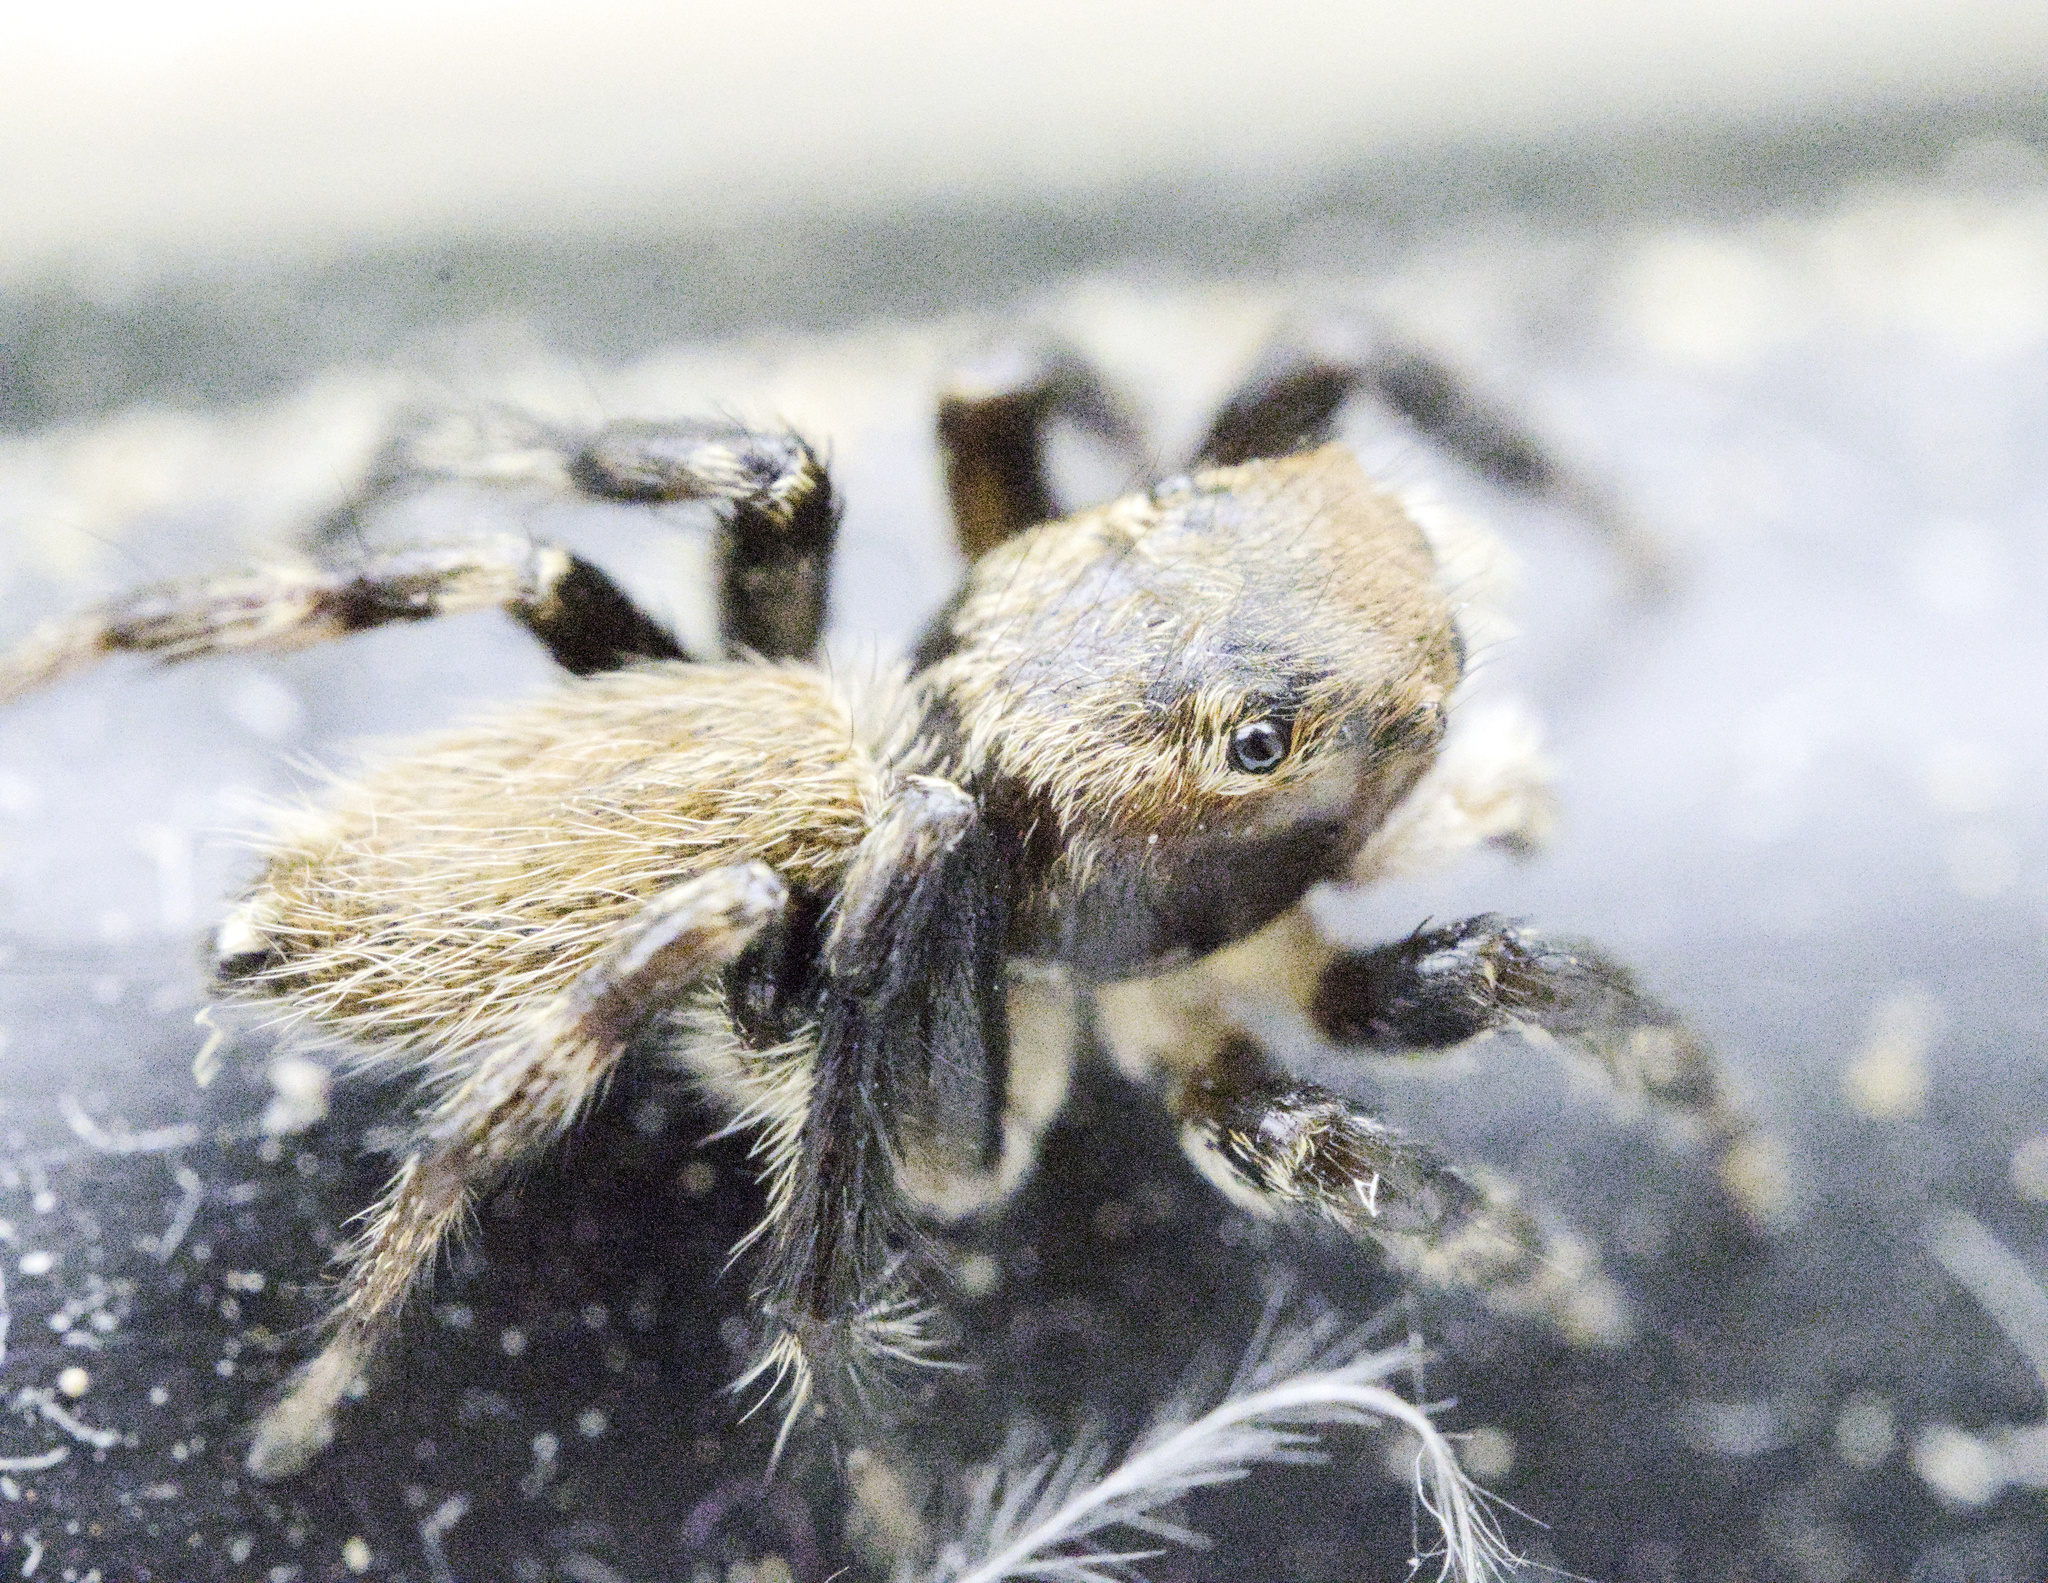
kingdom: Animalia
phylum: Arthropoda
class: Arachnida
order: Araneae
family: Salticidae
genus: Maratus
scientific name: Maratus griseus
